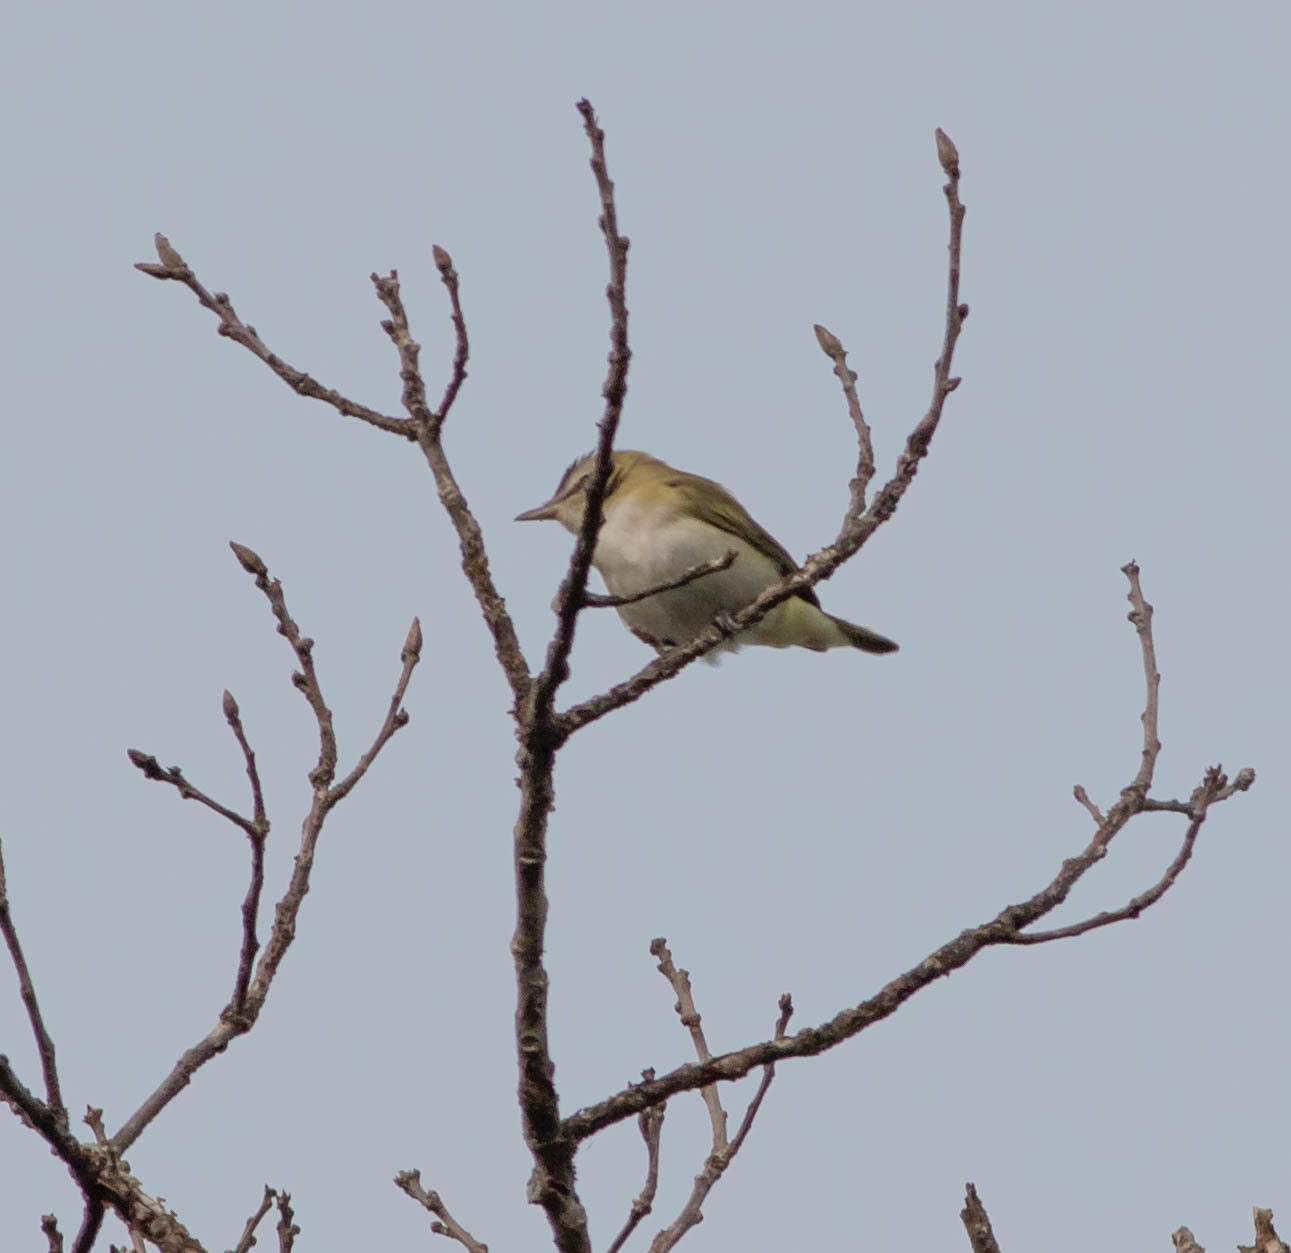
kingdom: Animalia
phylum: Chordata
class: Aves
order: Passeriformes
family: Vireonidae
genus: Vireo
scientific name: Vireo olivaceus
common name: Red-eyed vireo
